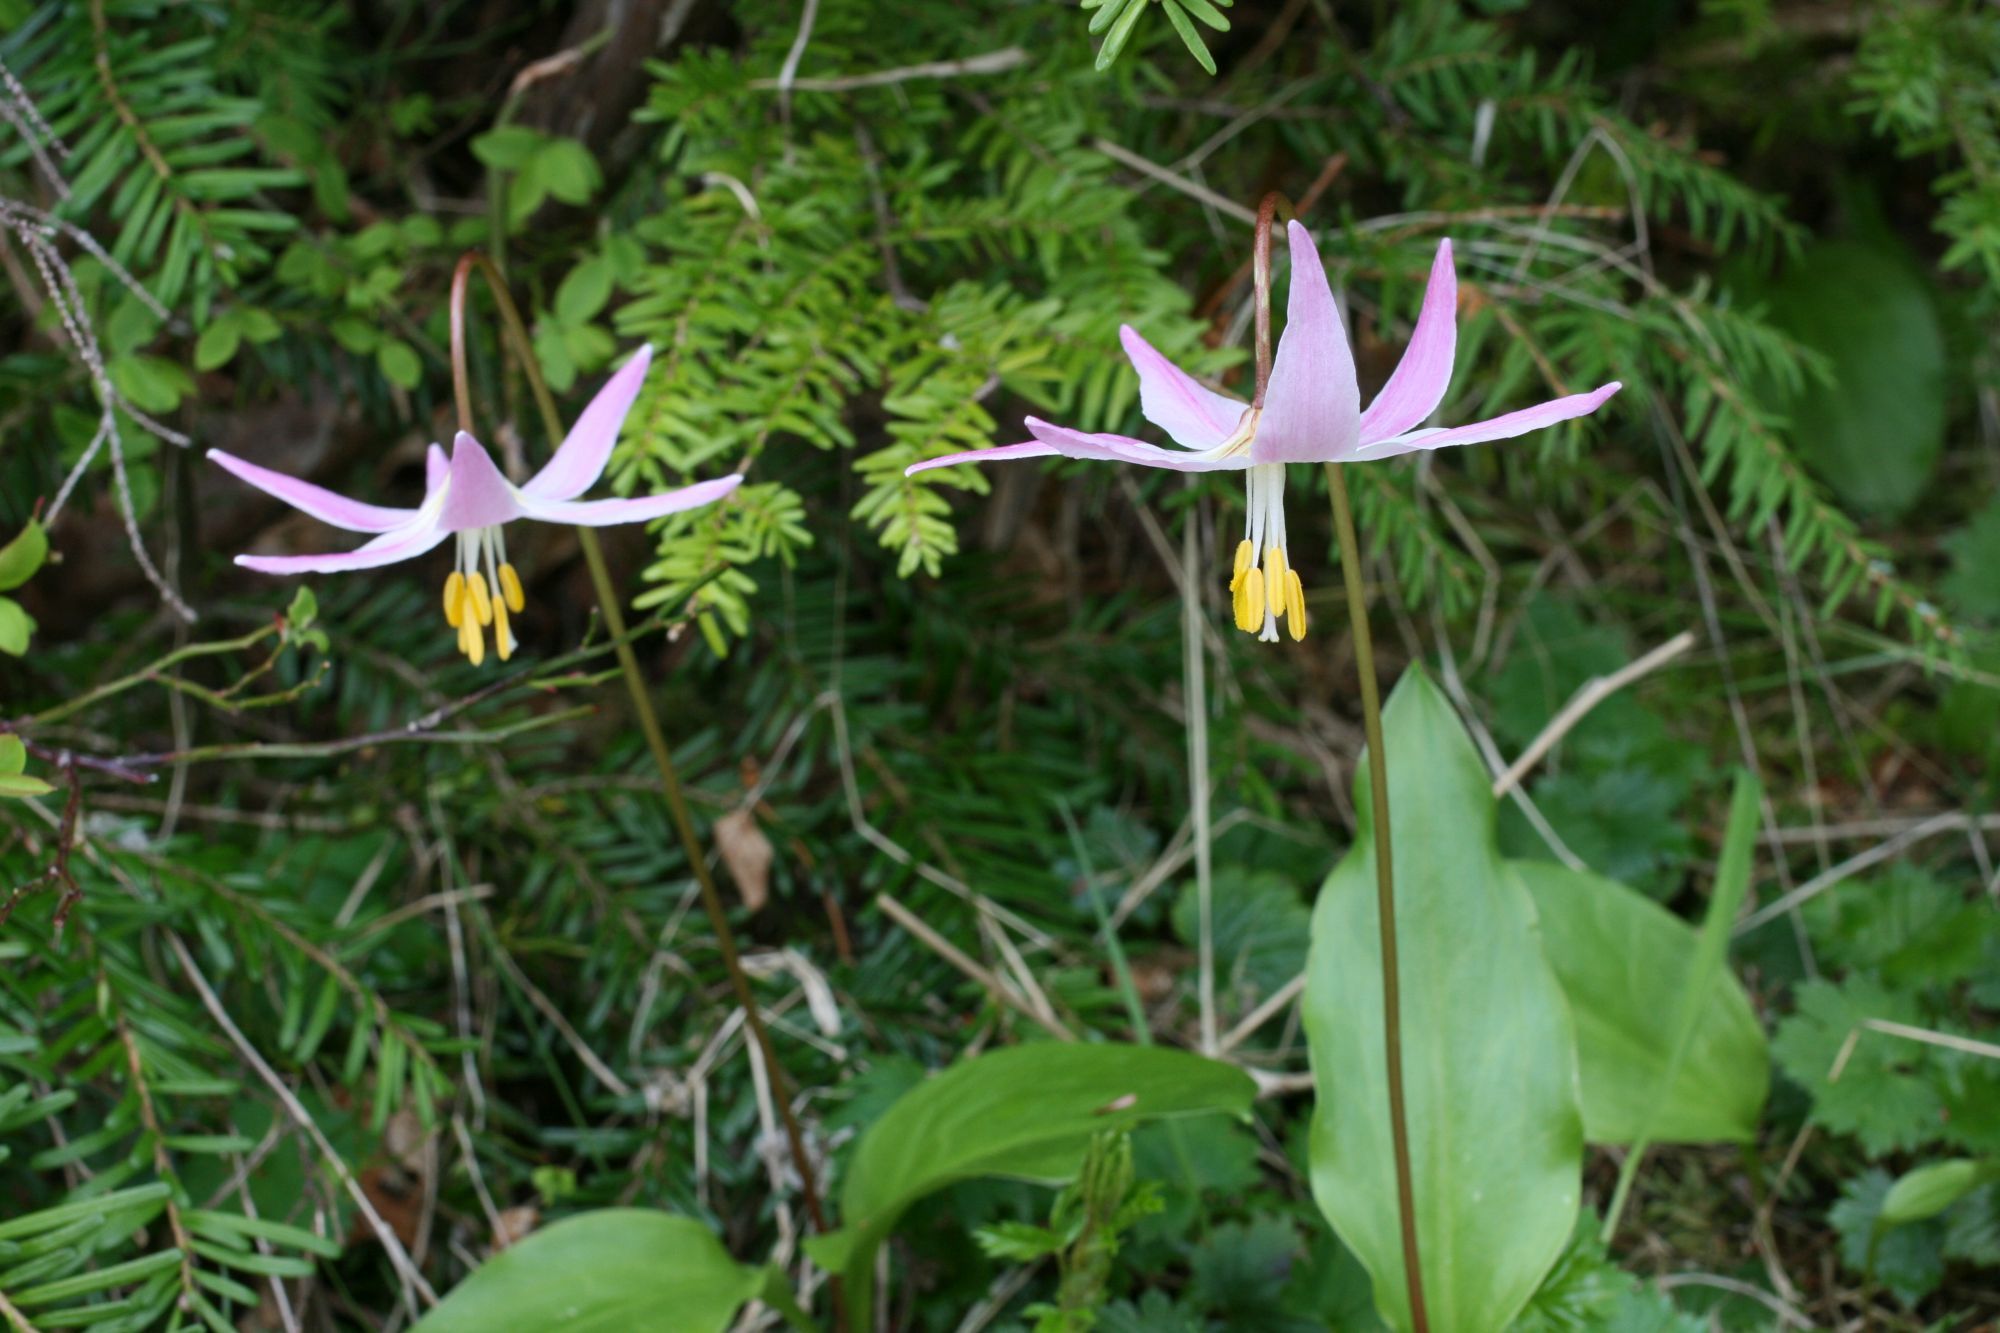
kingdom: Plantae
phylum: Tracheophyta
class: Liliopsida
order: Liliales
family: Liliaceae
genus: Erythronium
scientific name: Erythronium quinaultense
